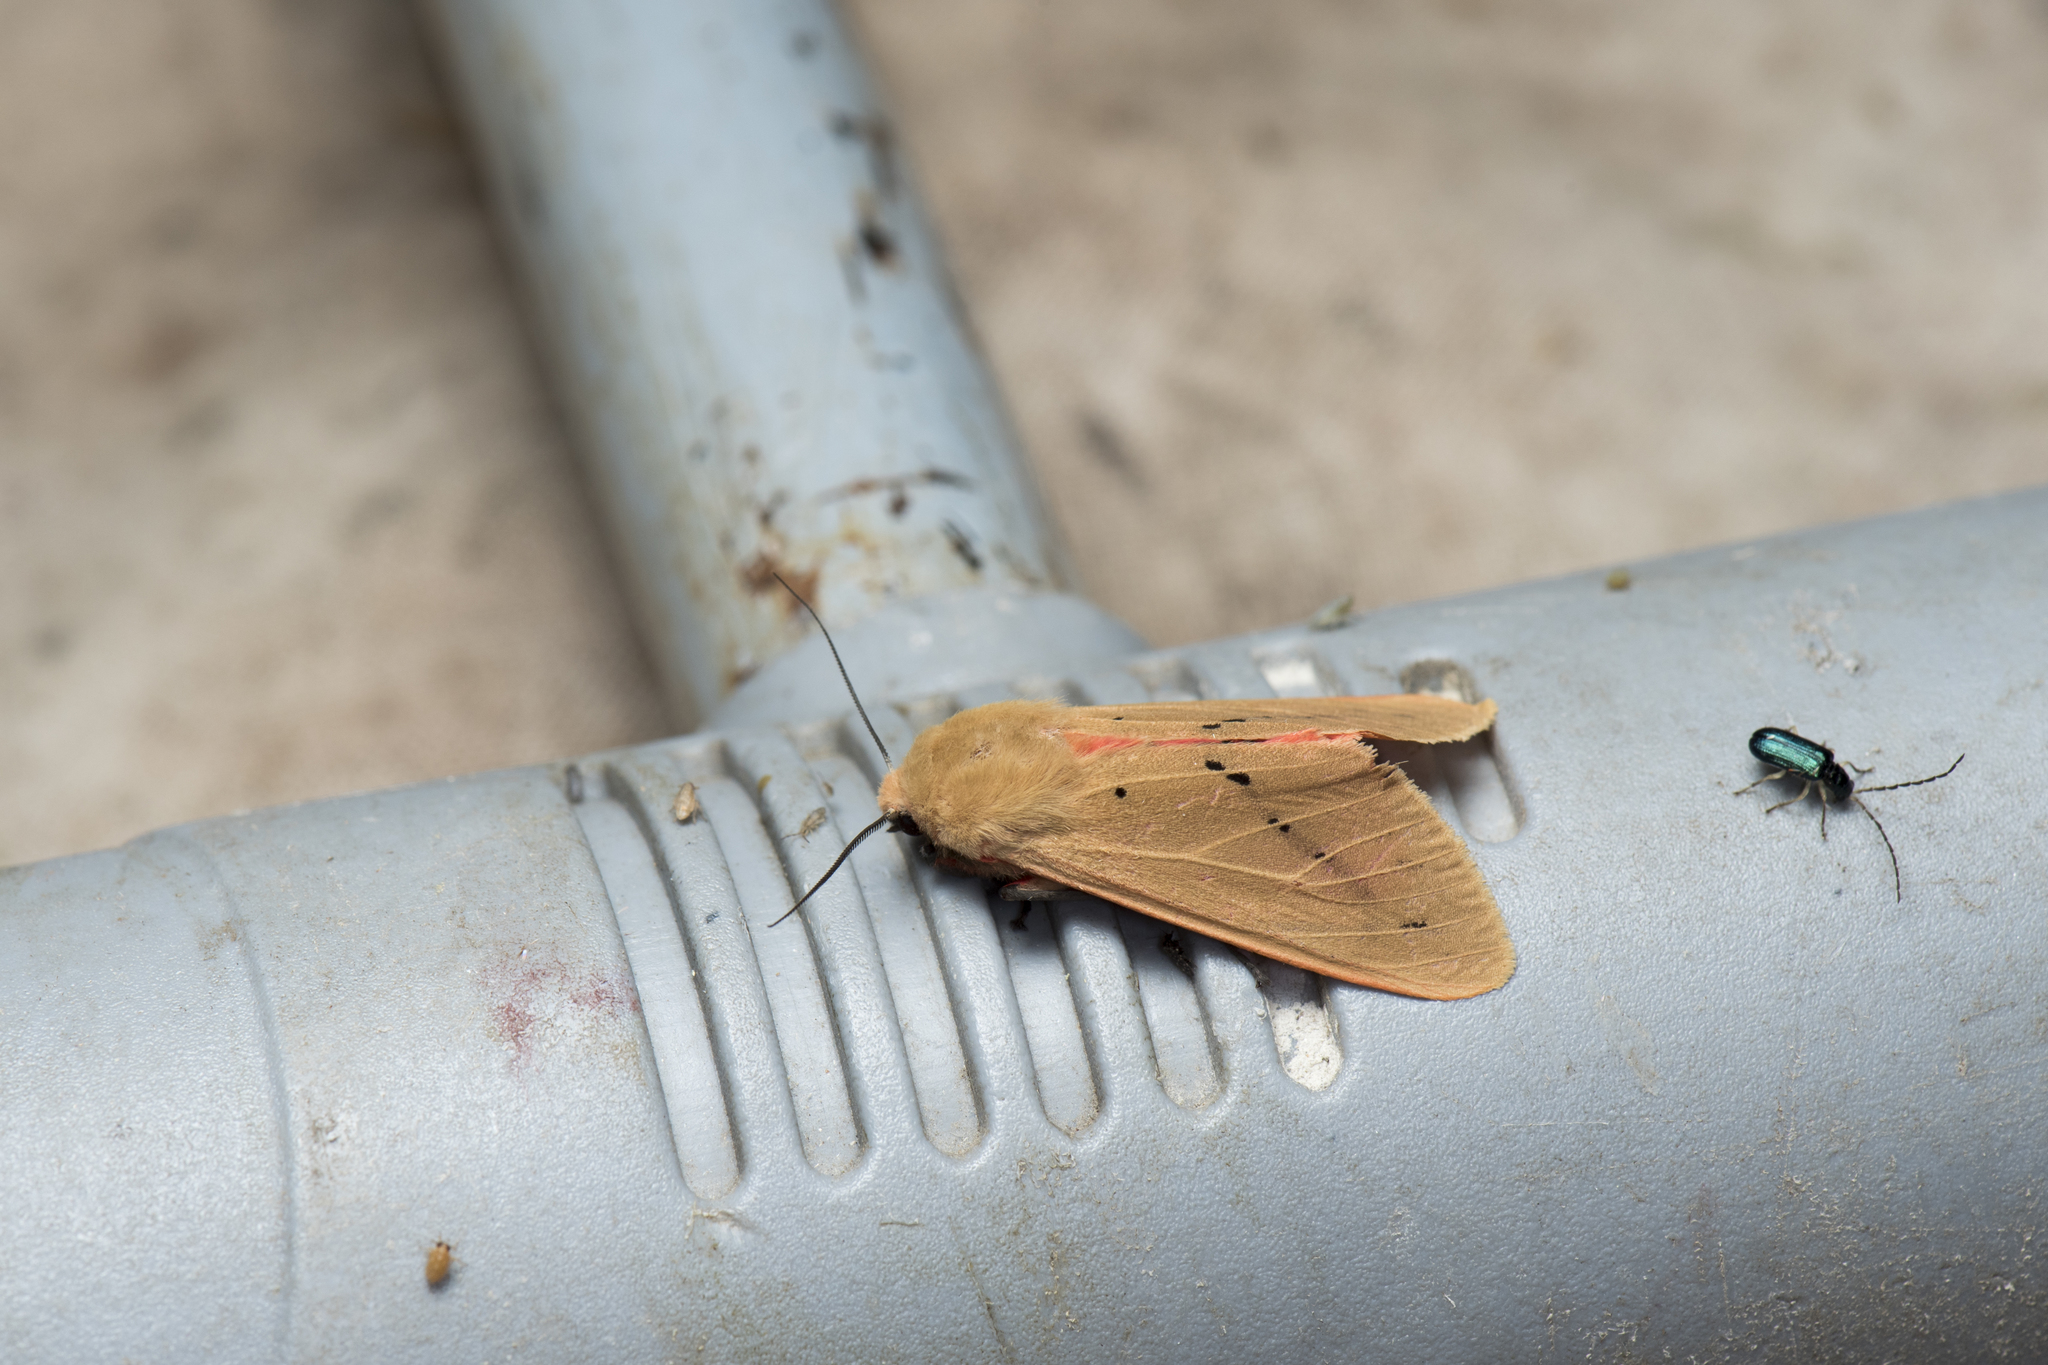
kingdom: Animalia
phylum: Arthropoda
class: Insecta
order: Lepidoptera
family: Erebidae
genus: Spilarctia
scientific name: Spilarctia wilemani
